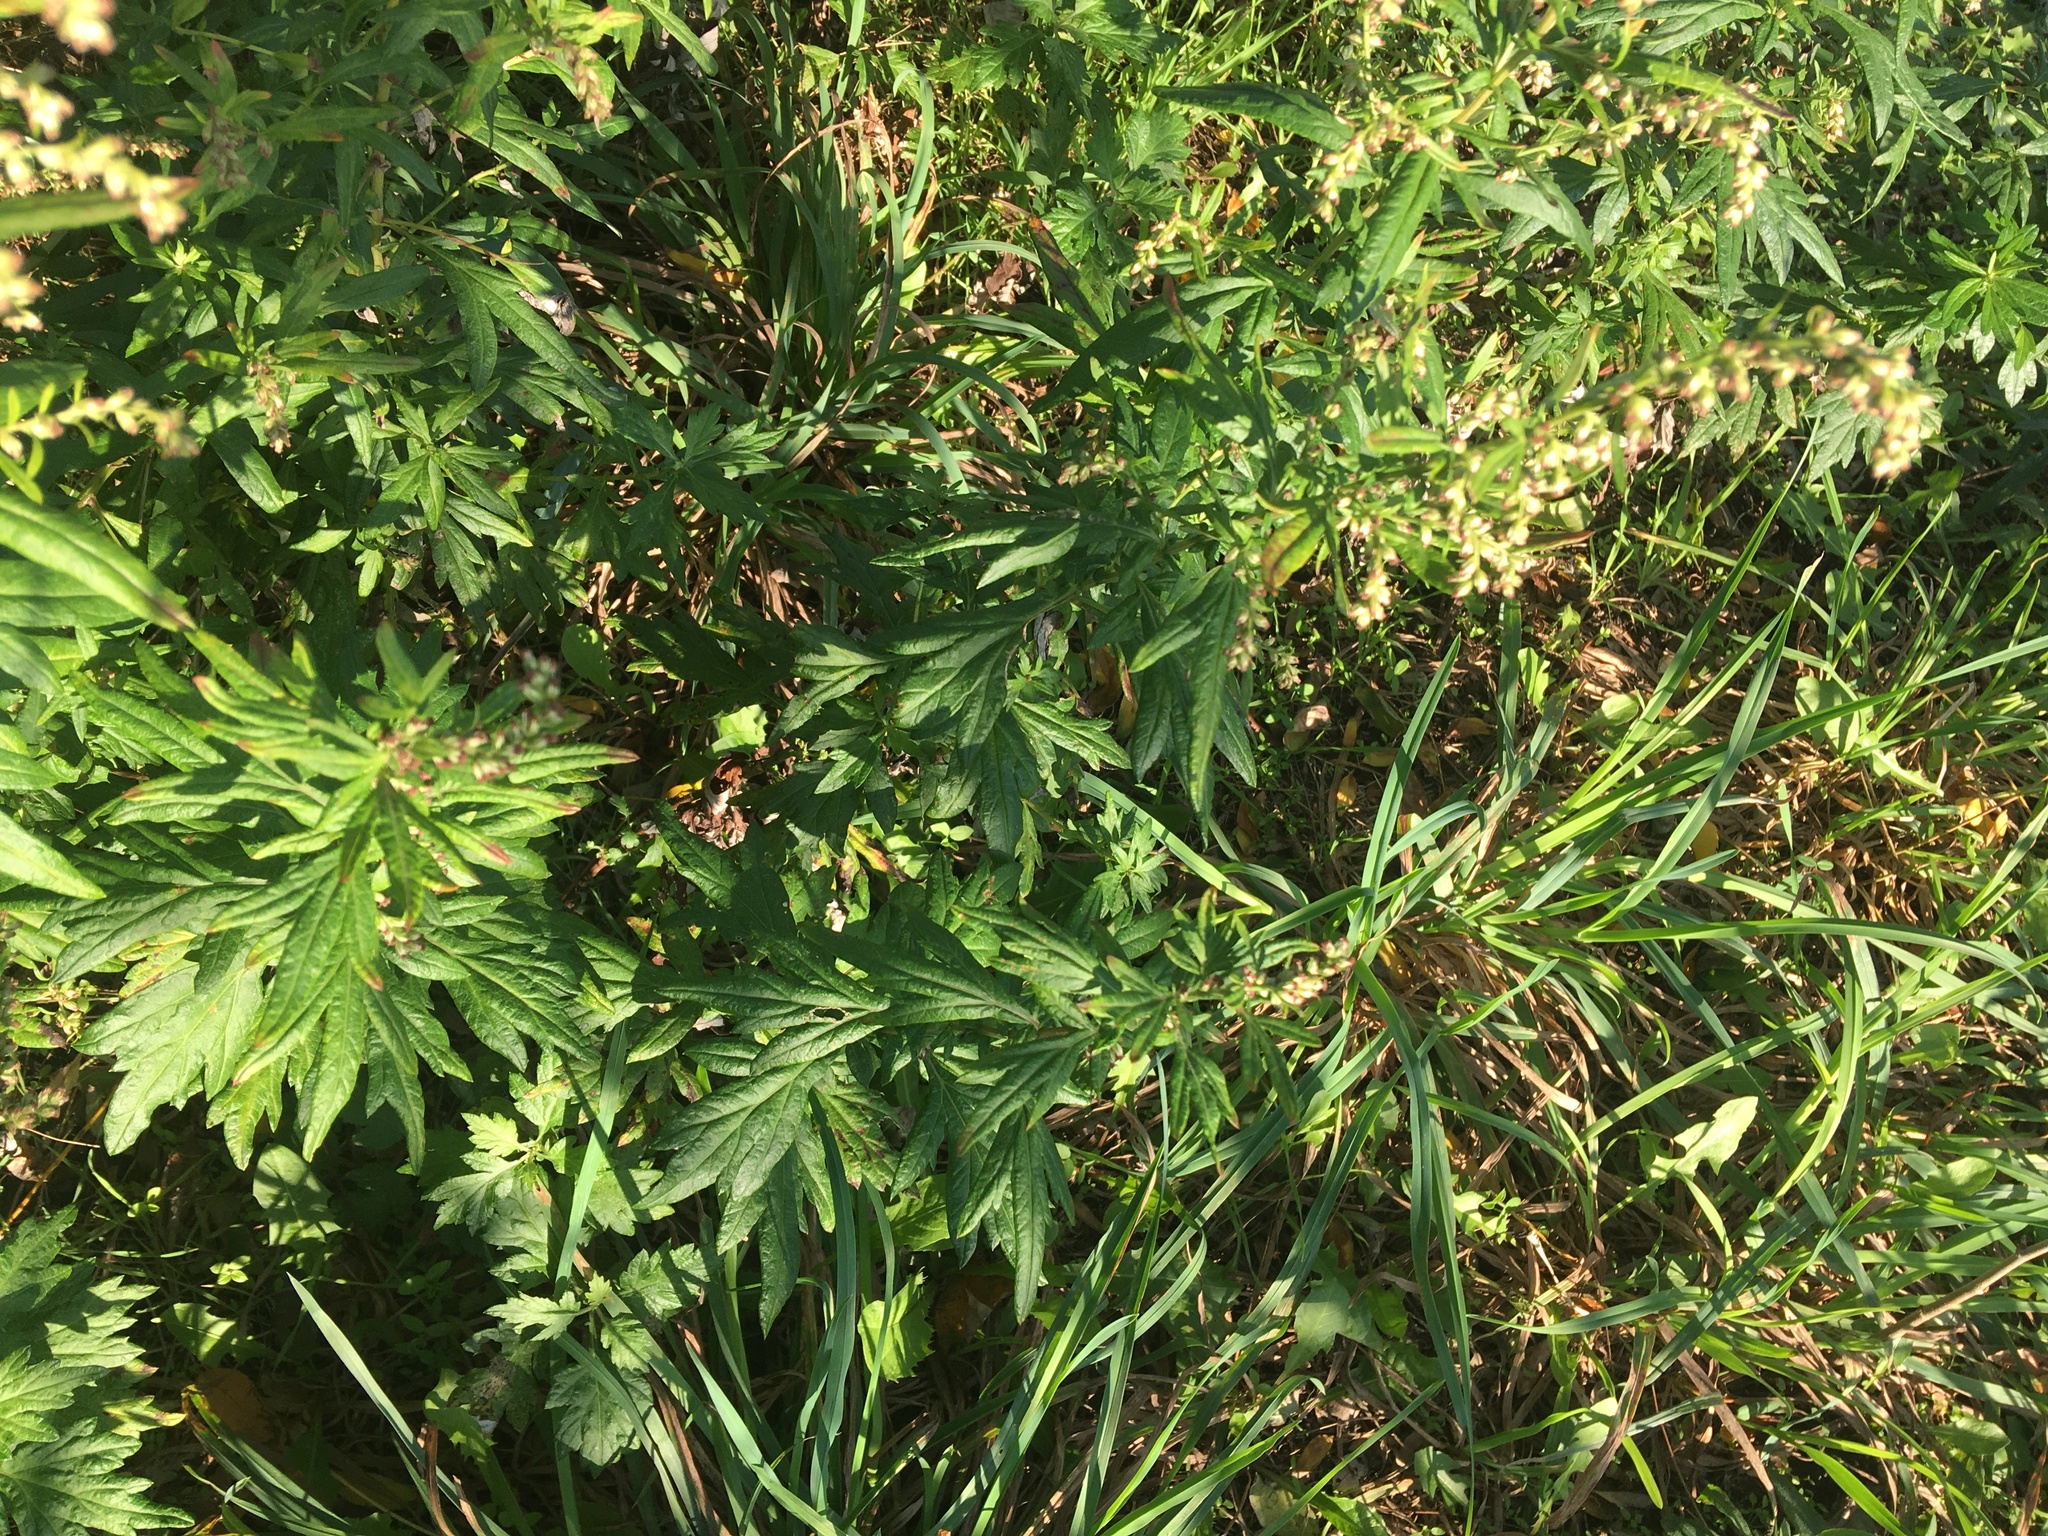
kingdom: Plantae
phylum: Tracheophyta
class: Magnoliopsida
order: Asterales
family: Asteraceae
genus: Artemisia
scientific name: Artemisia vulgaris
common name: Mugwort
